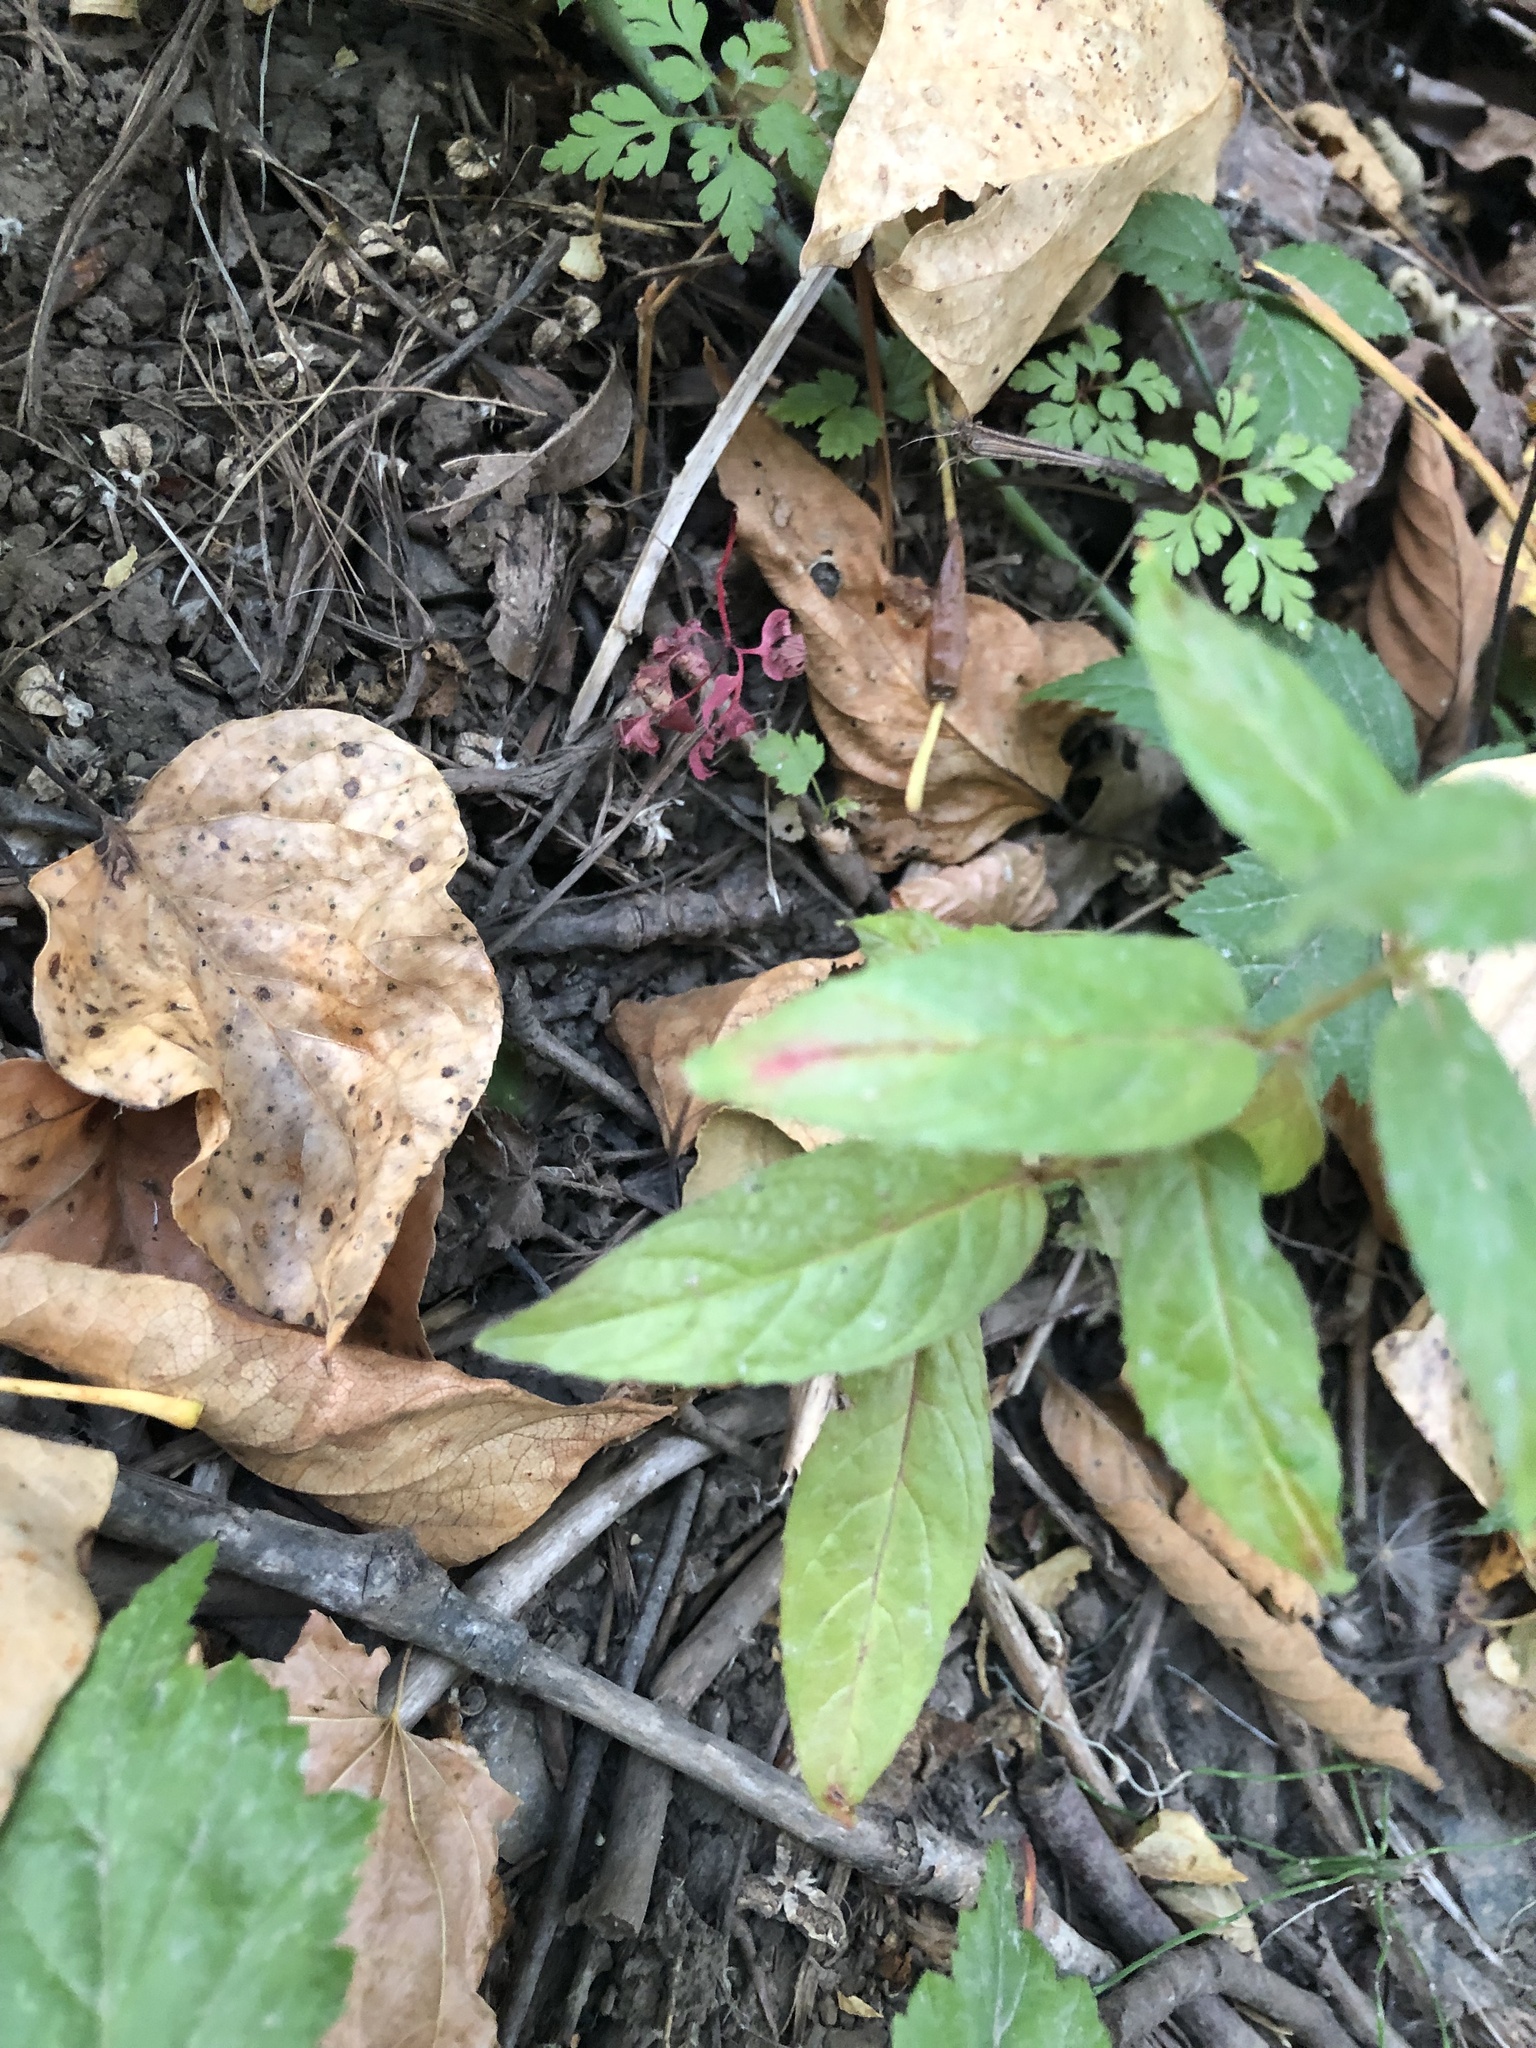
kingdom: Plantae
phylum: Tracheophyta
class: Magnoliopsida
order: Myrtales
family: Onagraceae
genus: Epilobium
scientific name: Epilobium ciliatum
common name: American willowherb
